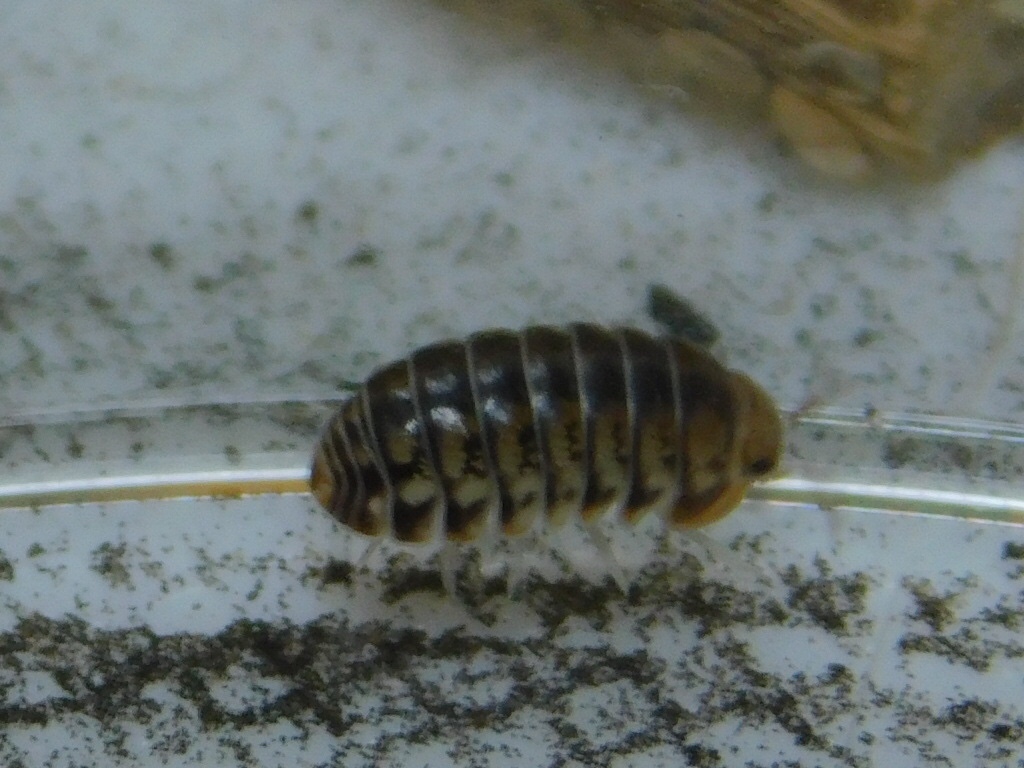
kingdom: Animalia
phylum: Arthropoda
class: Malacostraca
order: Isopoda
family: Armadillidae
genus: Venezillo
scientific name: Venezillo parvus
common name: Pillbug
